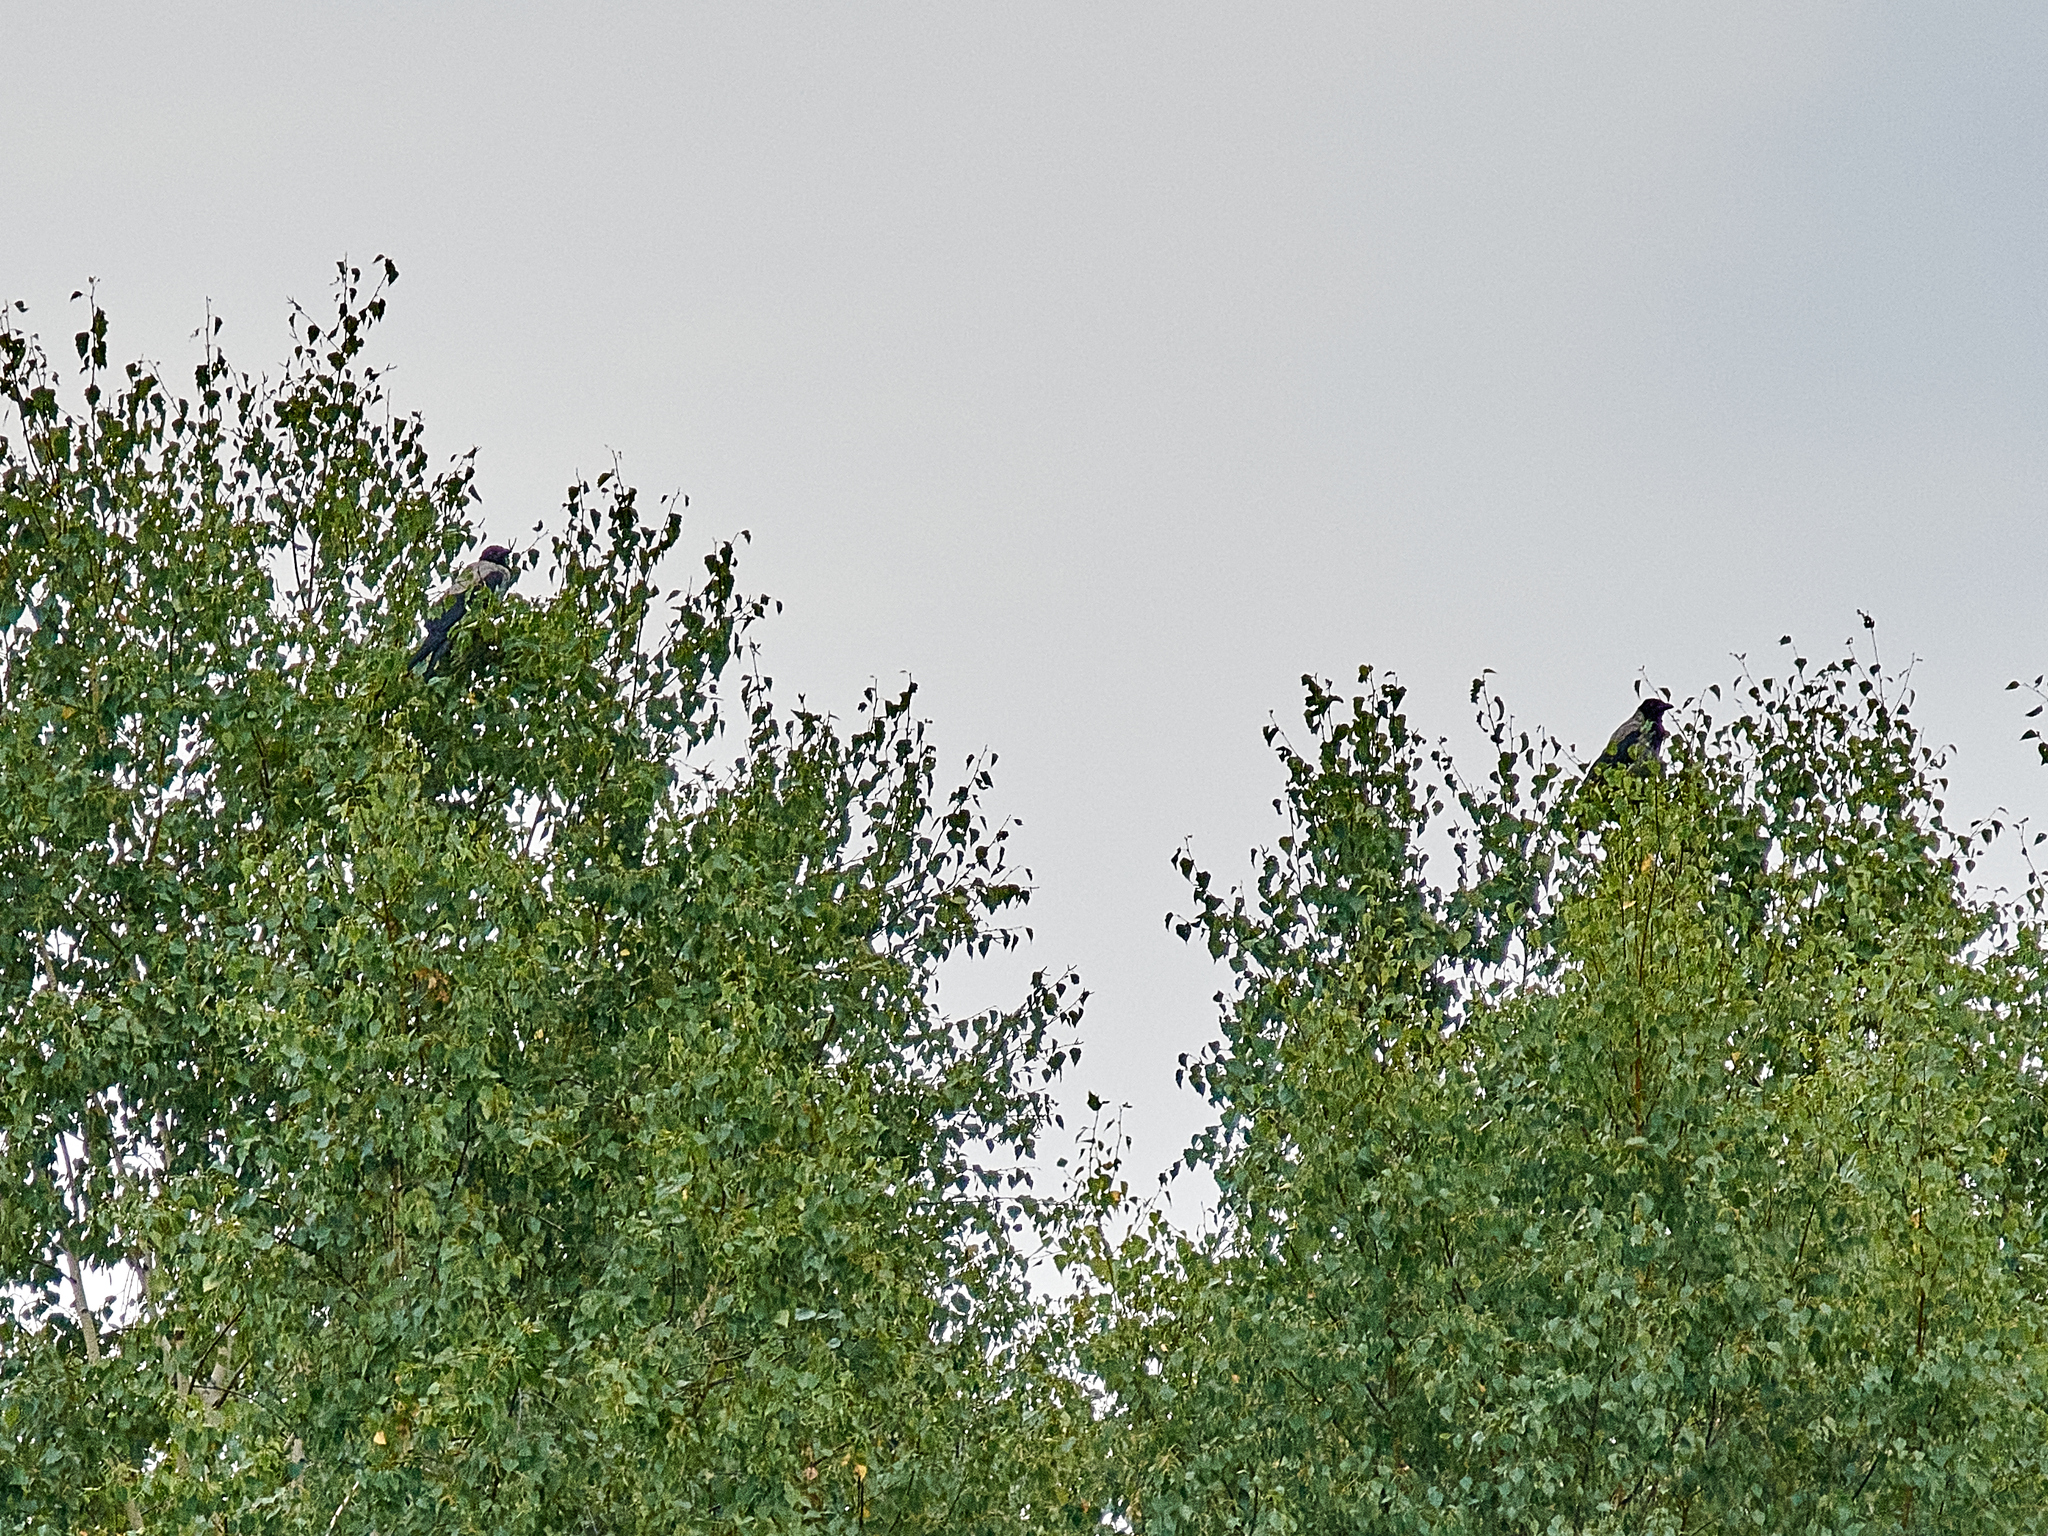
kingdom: Animalia
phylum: Chordata
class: Aves
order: Passeriformes
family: Corvidae
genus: Corvus
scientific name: Corvus cornix
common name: Hooded crow
